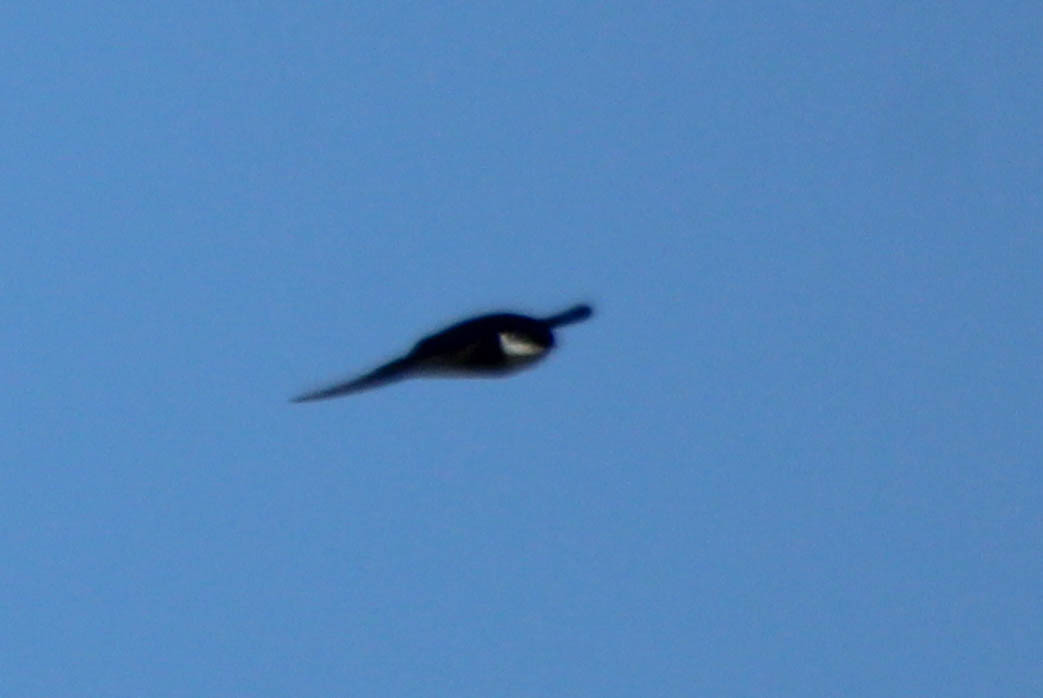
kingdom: Animalia
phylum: Chordata
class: Aves
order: Passeriformes
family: Hirundinidae
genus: Delichon
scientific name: Delichon dasypus
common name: Asian house martin
